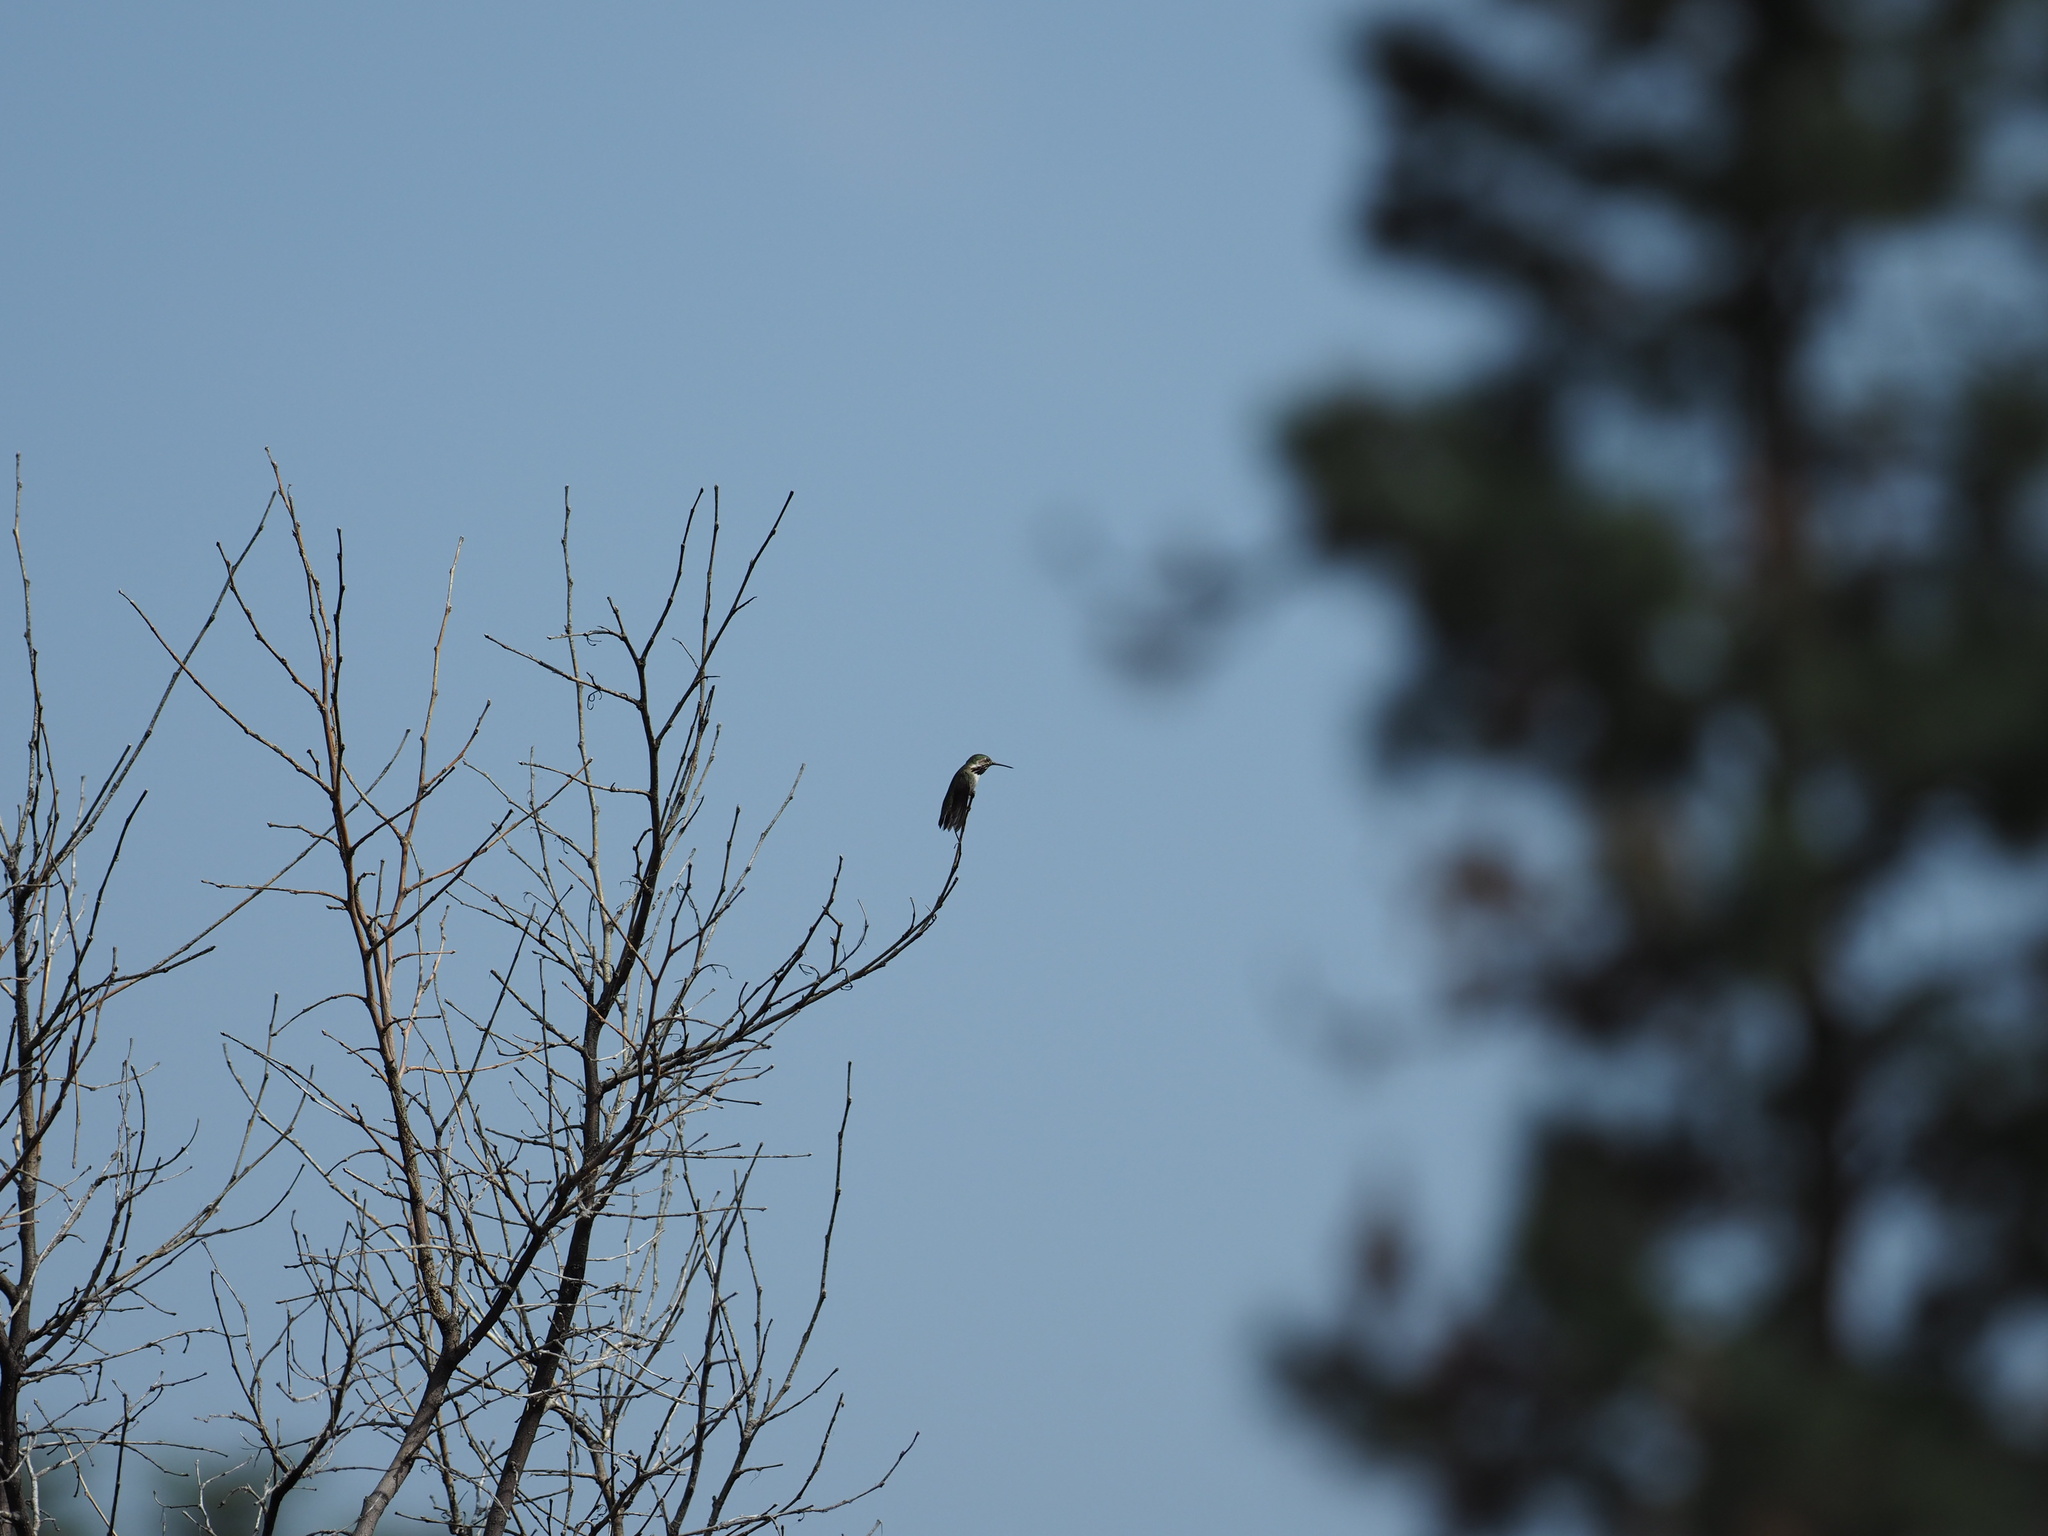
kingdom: Animalia
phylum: Chordata
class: Aves
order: Apodiformes
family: Trochilidae
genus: Selasphorus
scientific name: Selasphorus calliope
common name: Calliope hummingbird
